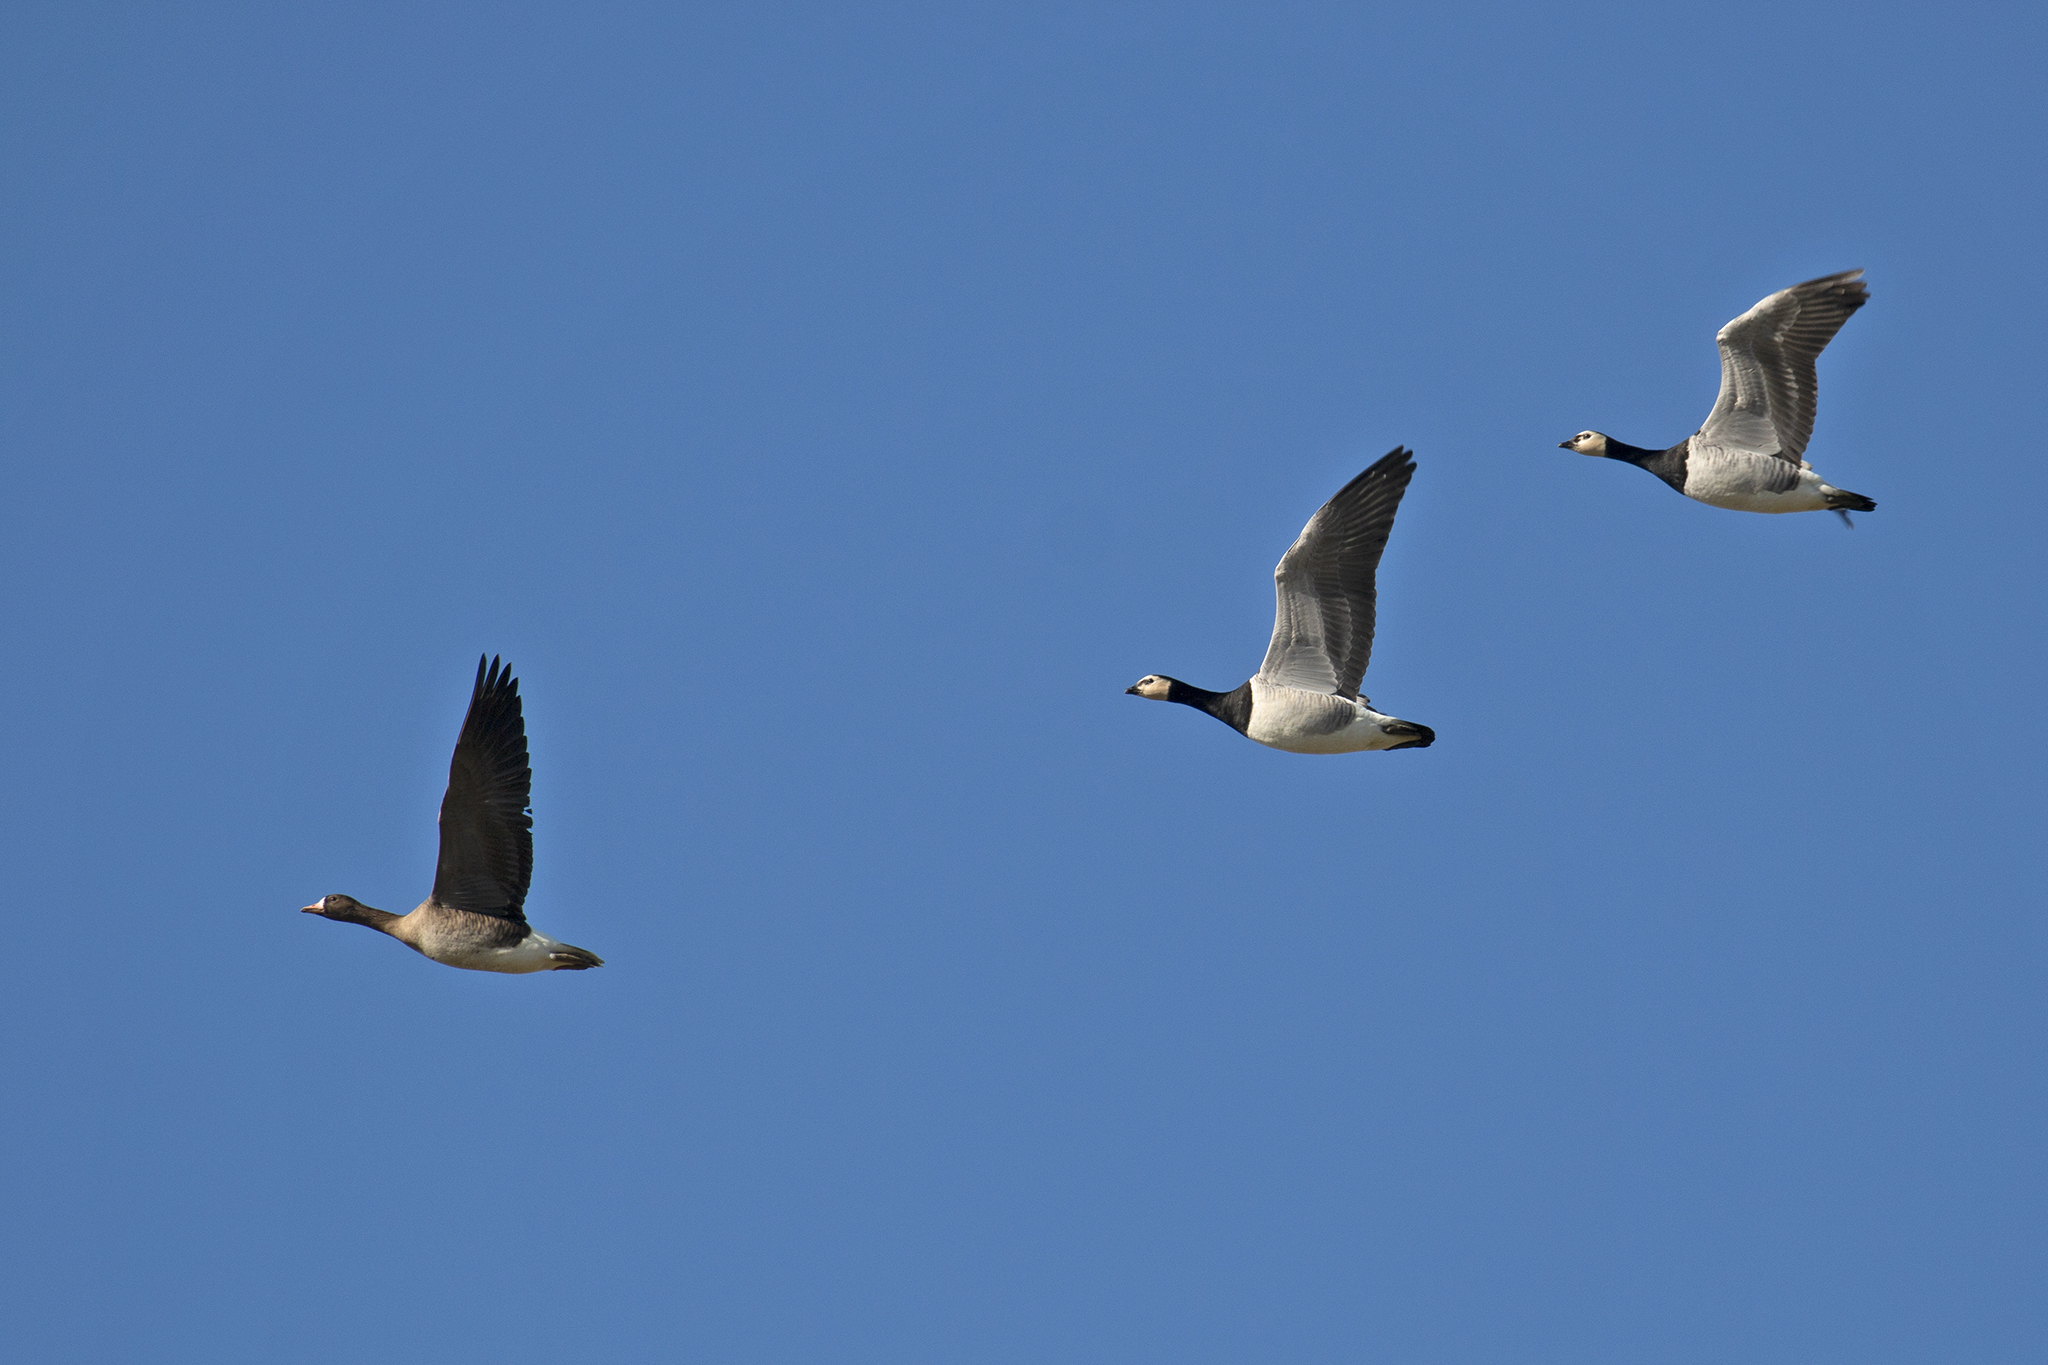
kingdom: Animalia
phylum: Chordata
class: Aves
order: Anseriformes
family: Anatidae
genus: Branta
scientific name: Branta leucopsis
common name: Barnacle goose
